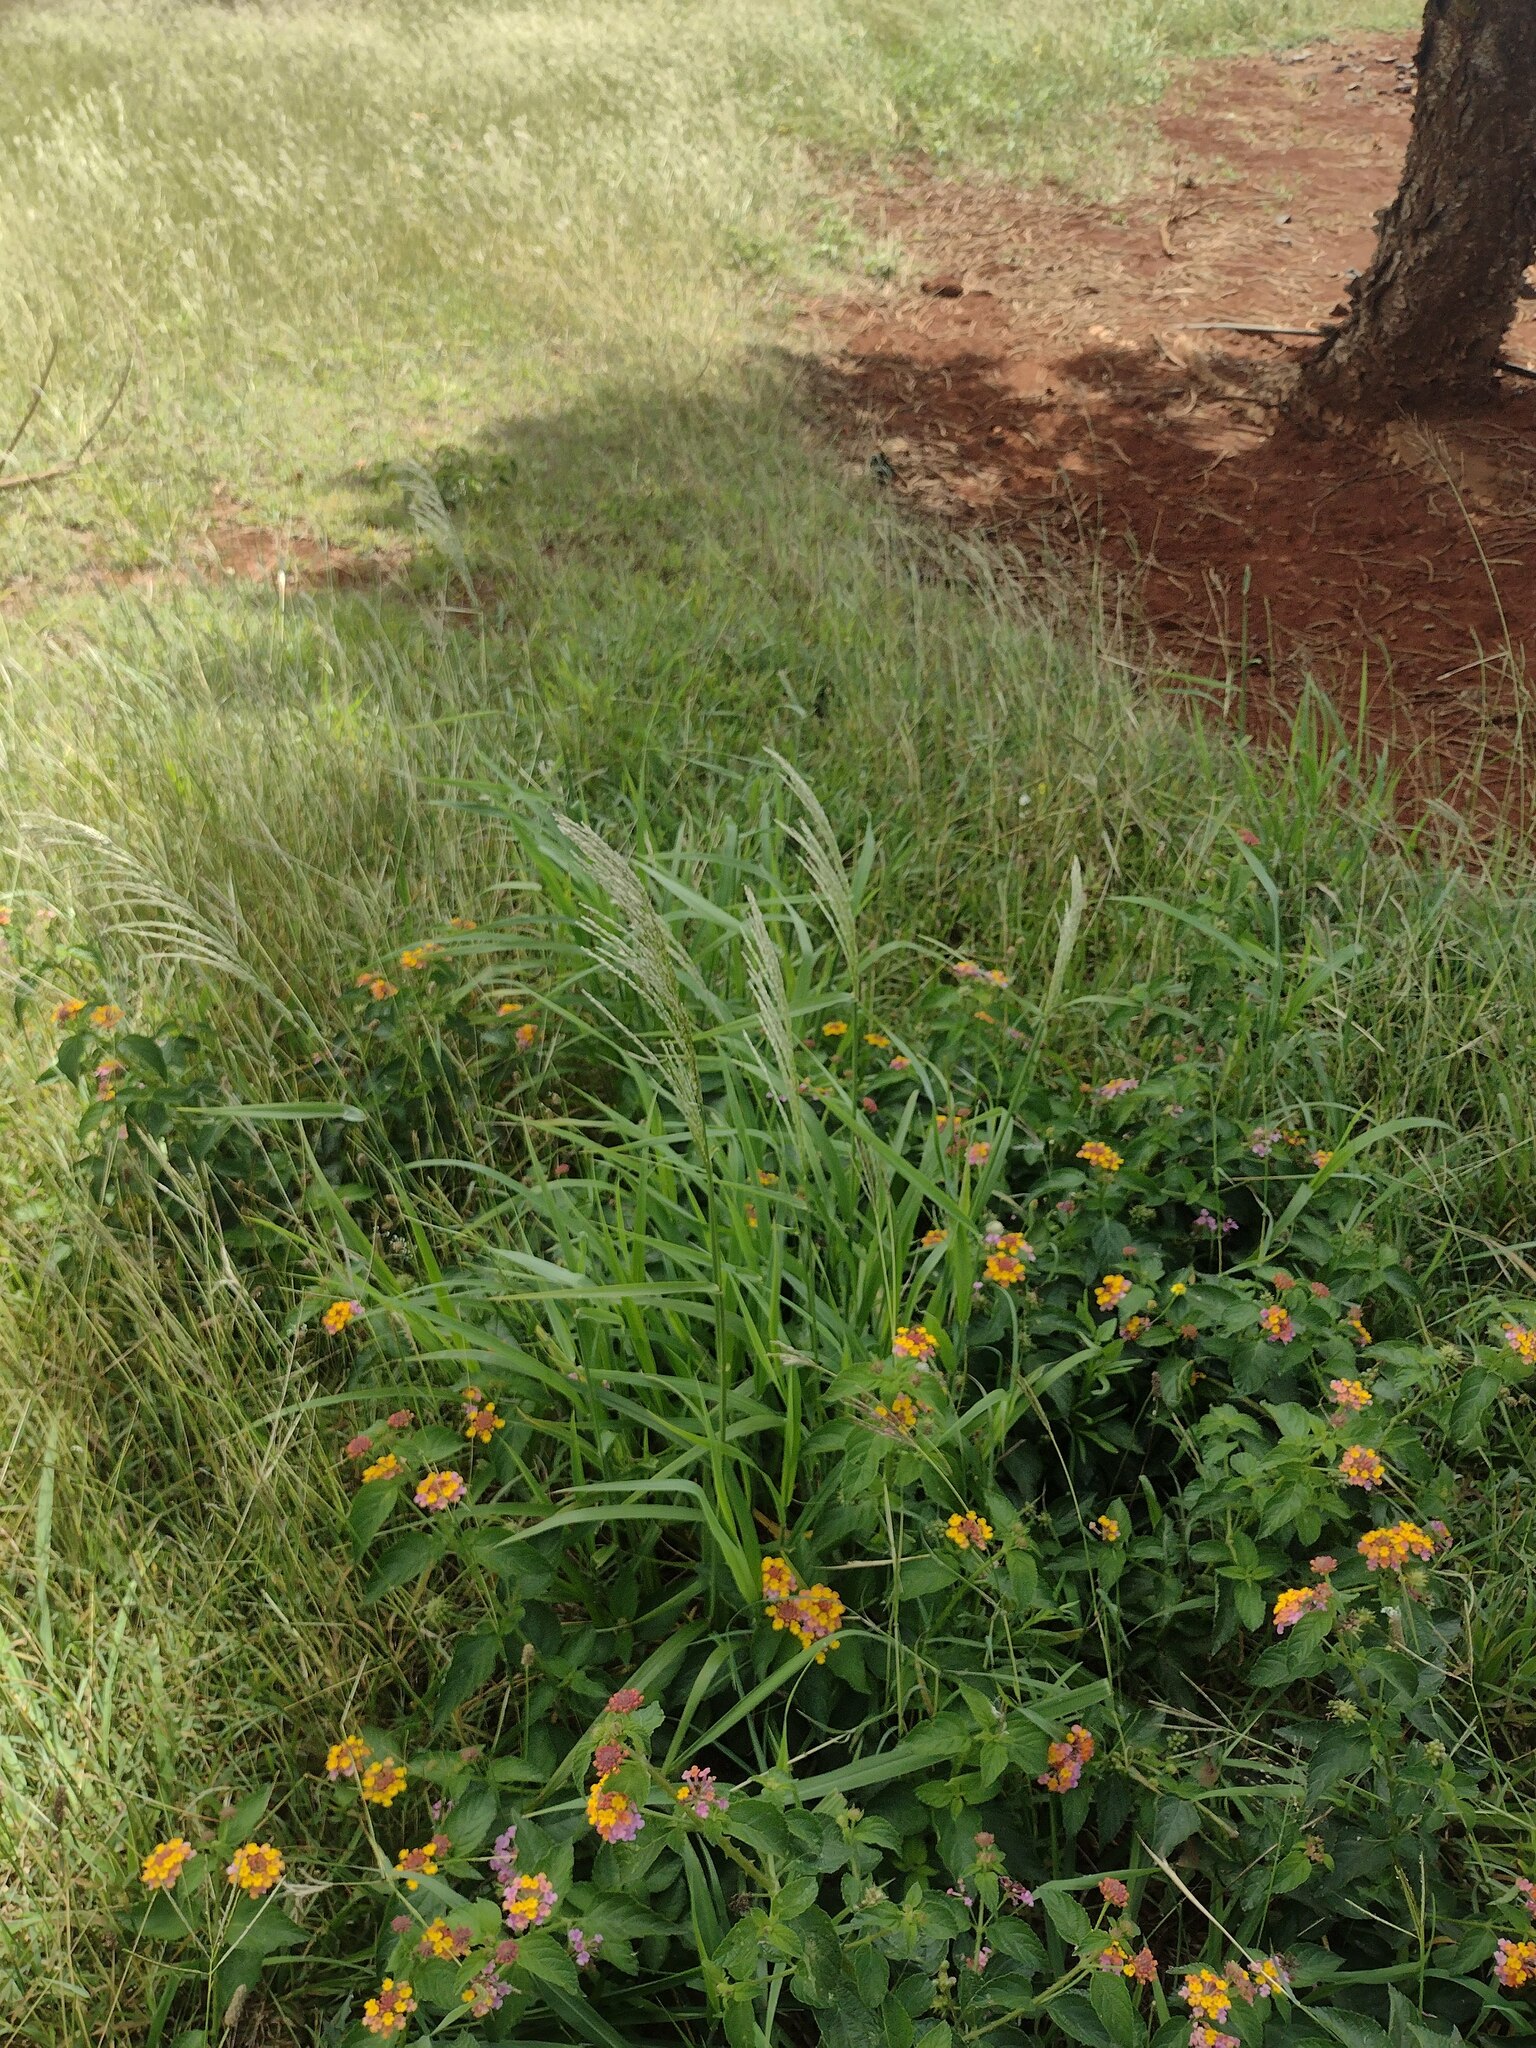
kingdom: Plantae
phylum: Tracheophyta
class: Liliopsida
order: Poales
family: Poaceae
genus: Digitaria
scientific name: Digitaria insularis
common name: Sourgrass
